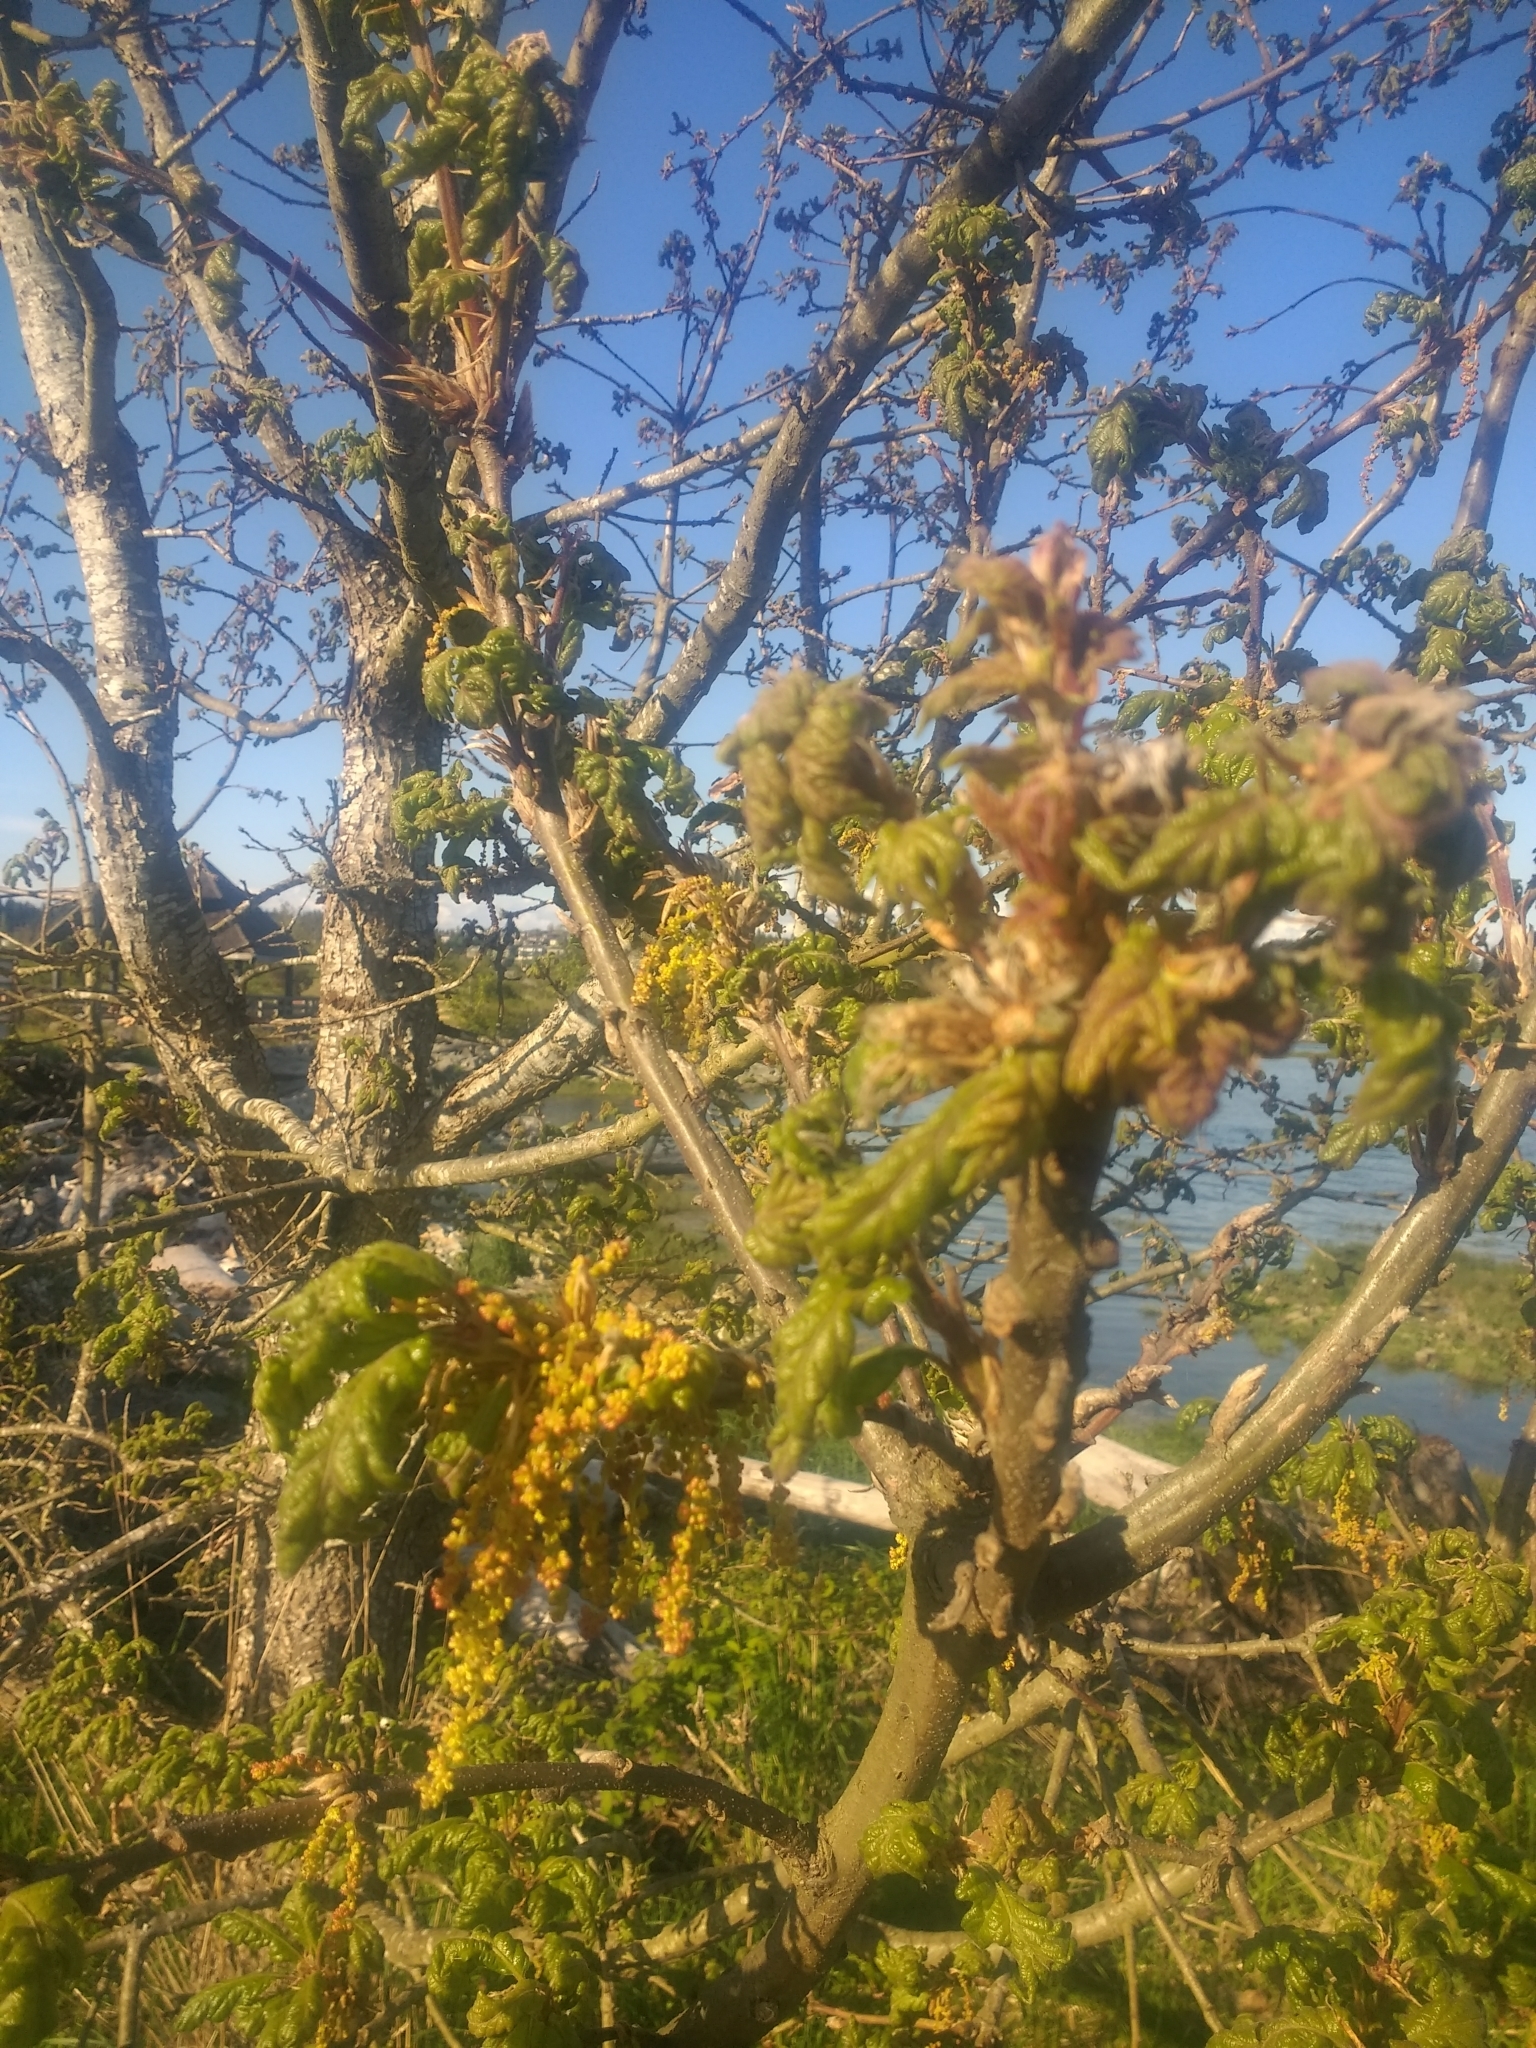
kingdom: Plantae
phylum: Tracheophyta
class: Magnoliopsida
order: Fagales
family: Fagaceae
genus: Quercus
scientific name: Quercus garryana
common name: Garry oak
